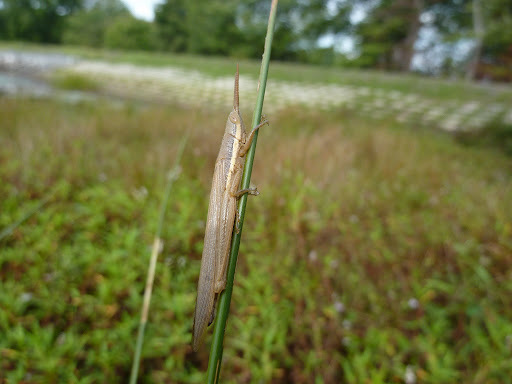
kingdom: Animalia
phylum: Arthropoda
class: Insecta
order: Orthoptera
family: Acrididae
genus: Leptysma
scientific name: Leptysma marginicollis
